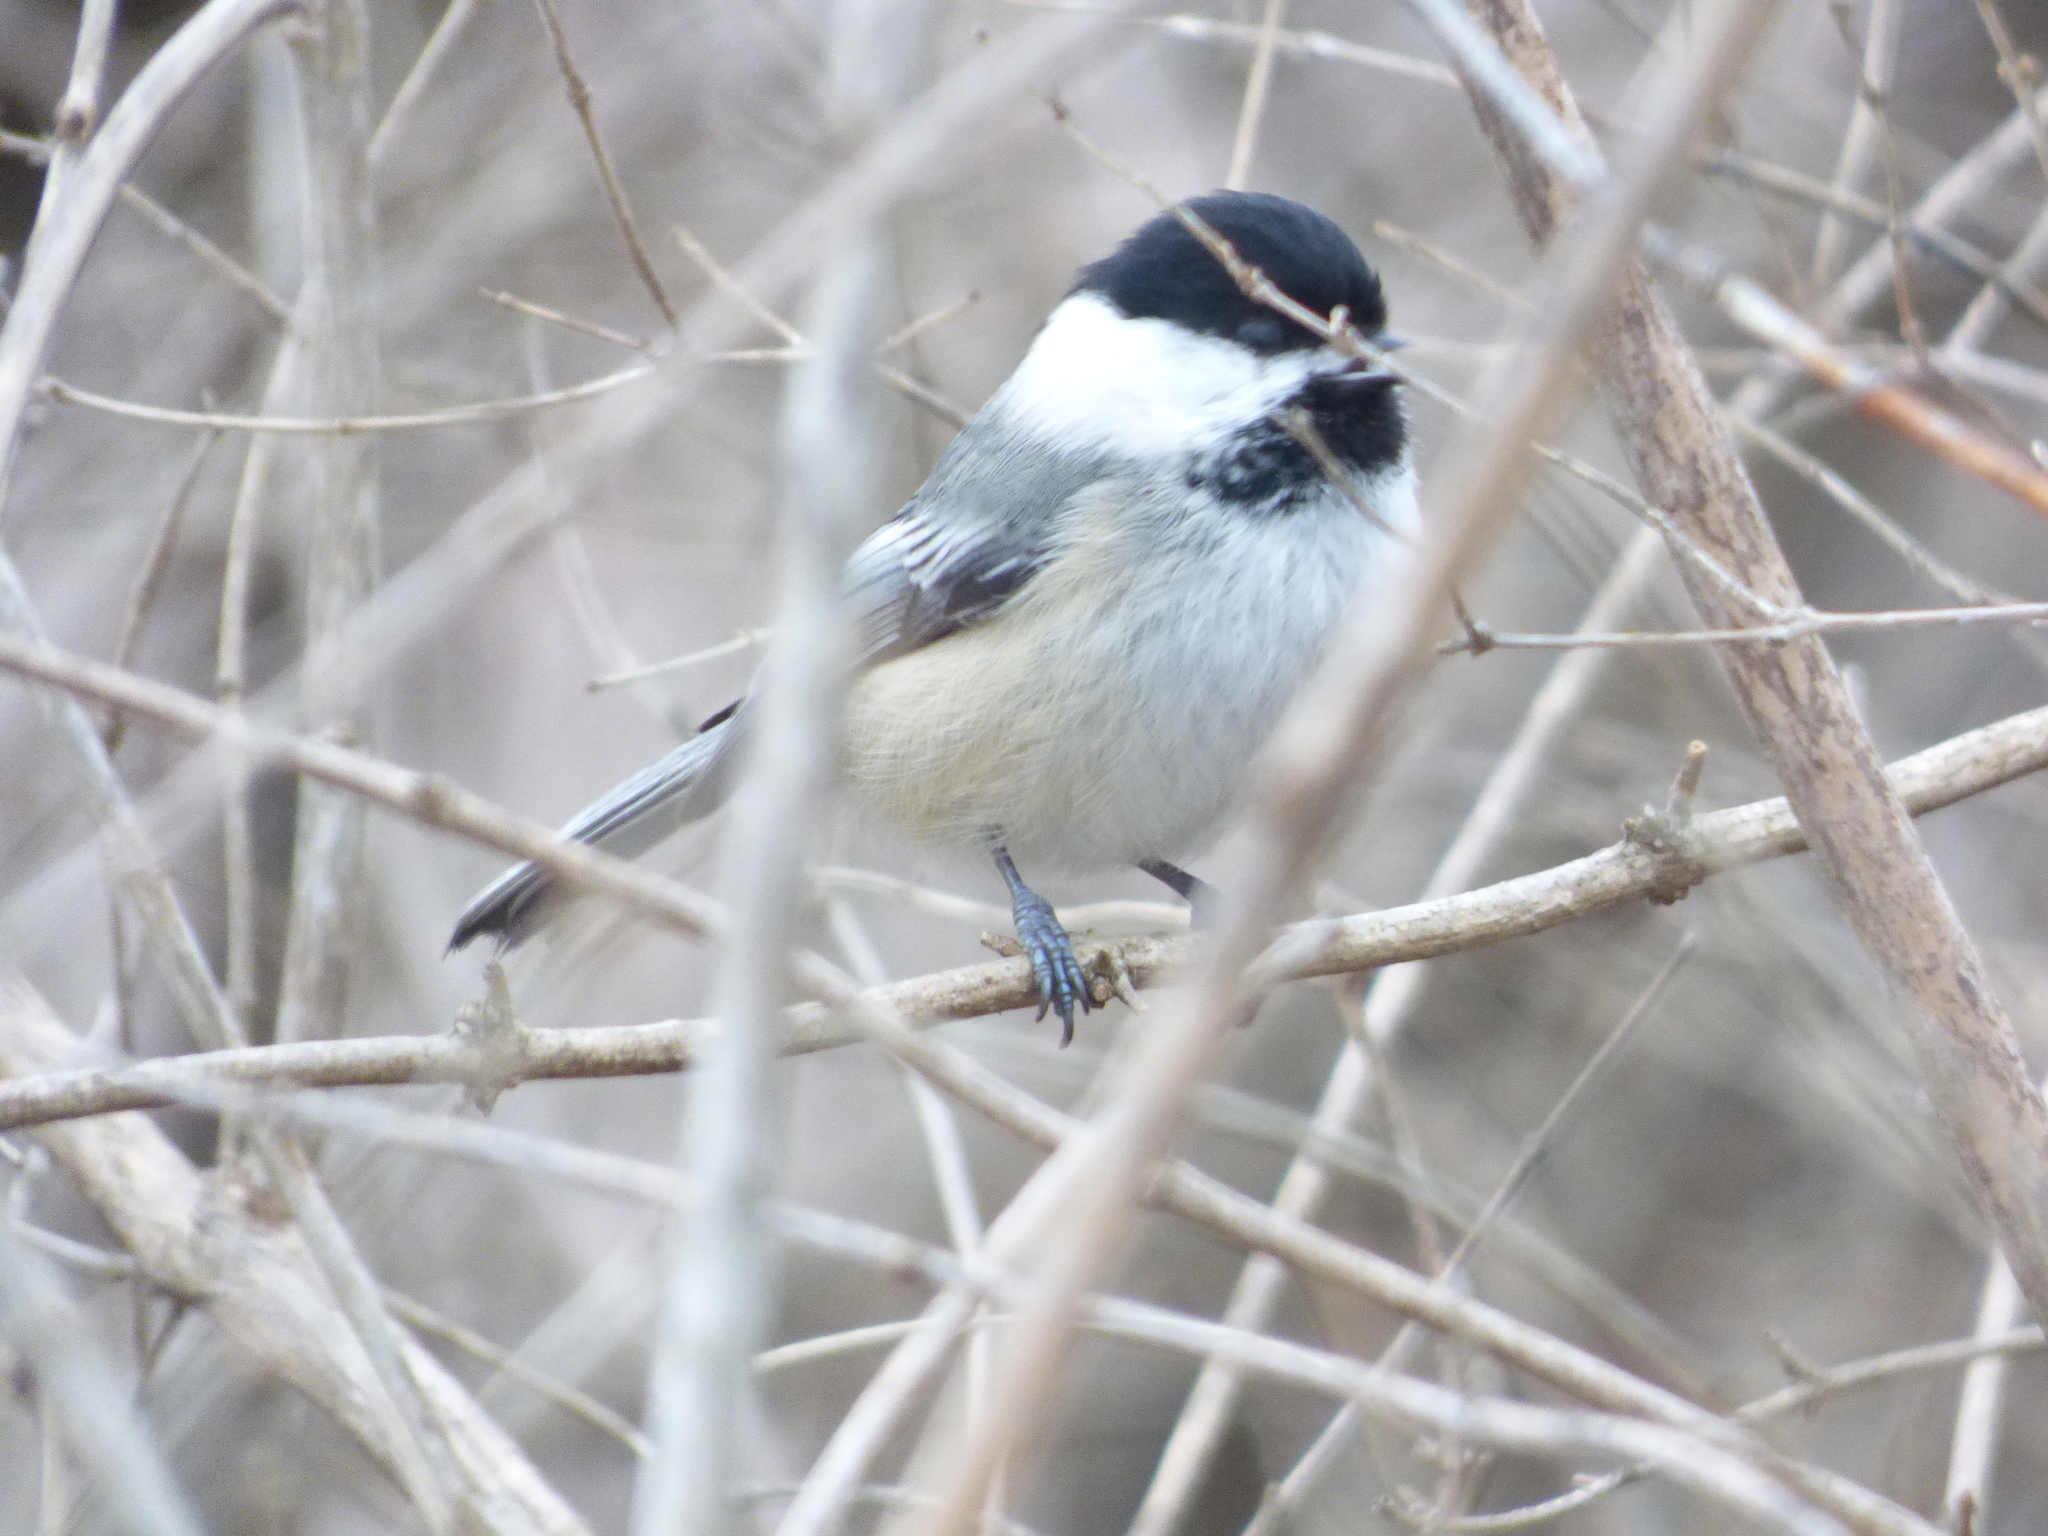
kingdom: Animalia
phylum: Chordata
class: Aves
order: Passeriformes
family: Paridae
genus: Poecile
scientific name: Poecile atricapillus
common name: Black-capped chickadee
